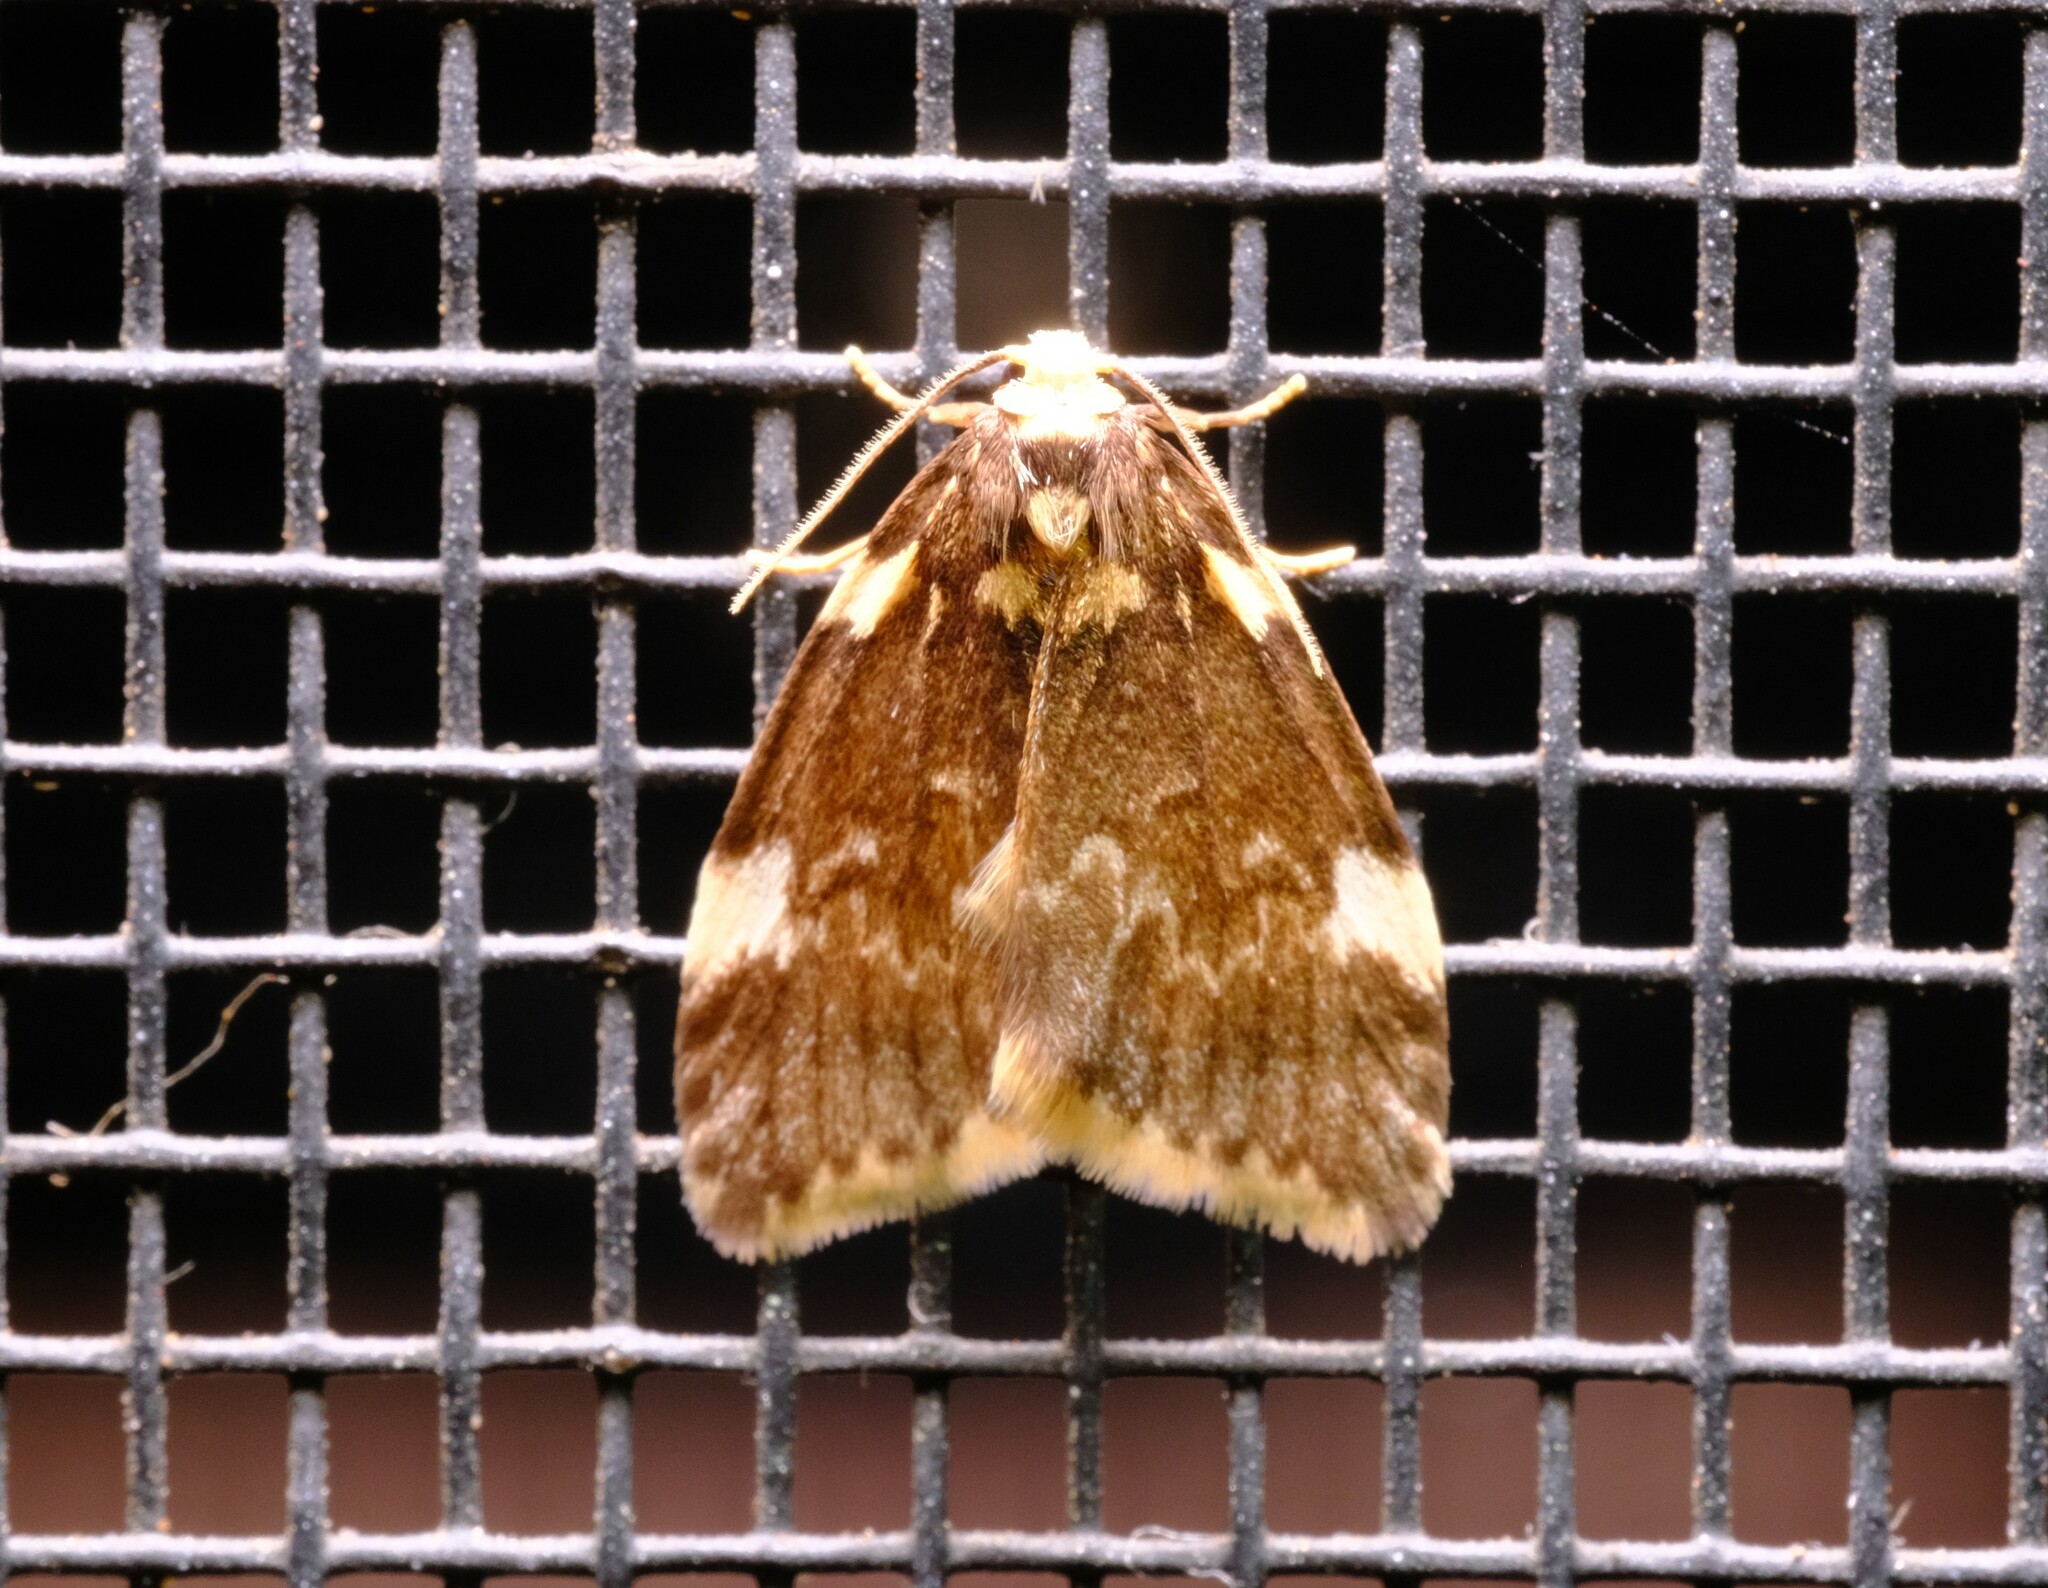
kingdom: Animalia
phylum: Arthropoda
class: Insecta
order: Lepidoptera
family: Erebidae
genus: Halone
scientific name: Halone pteridaula
